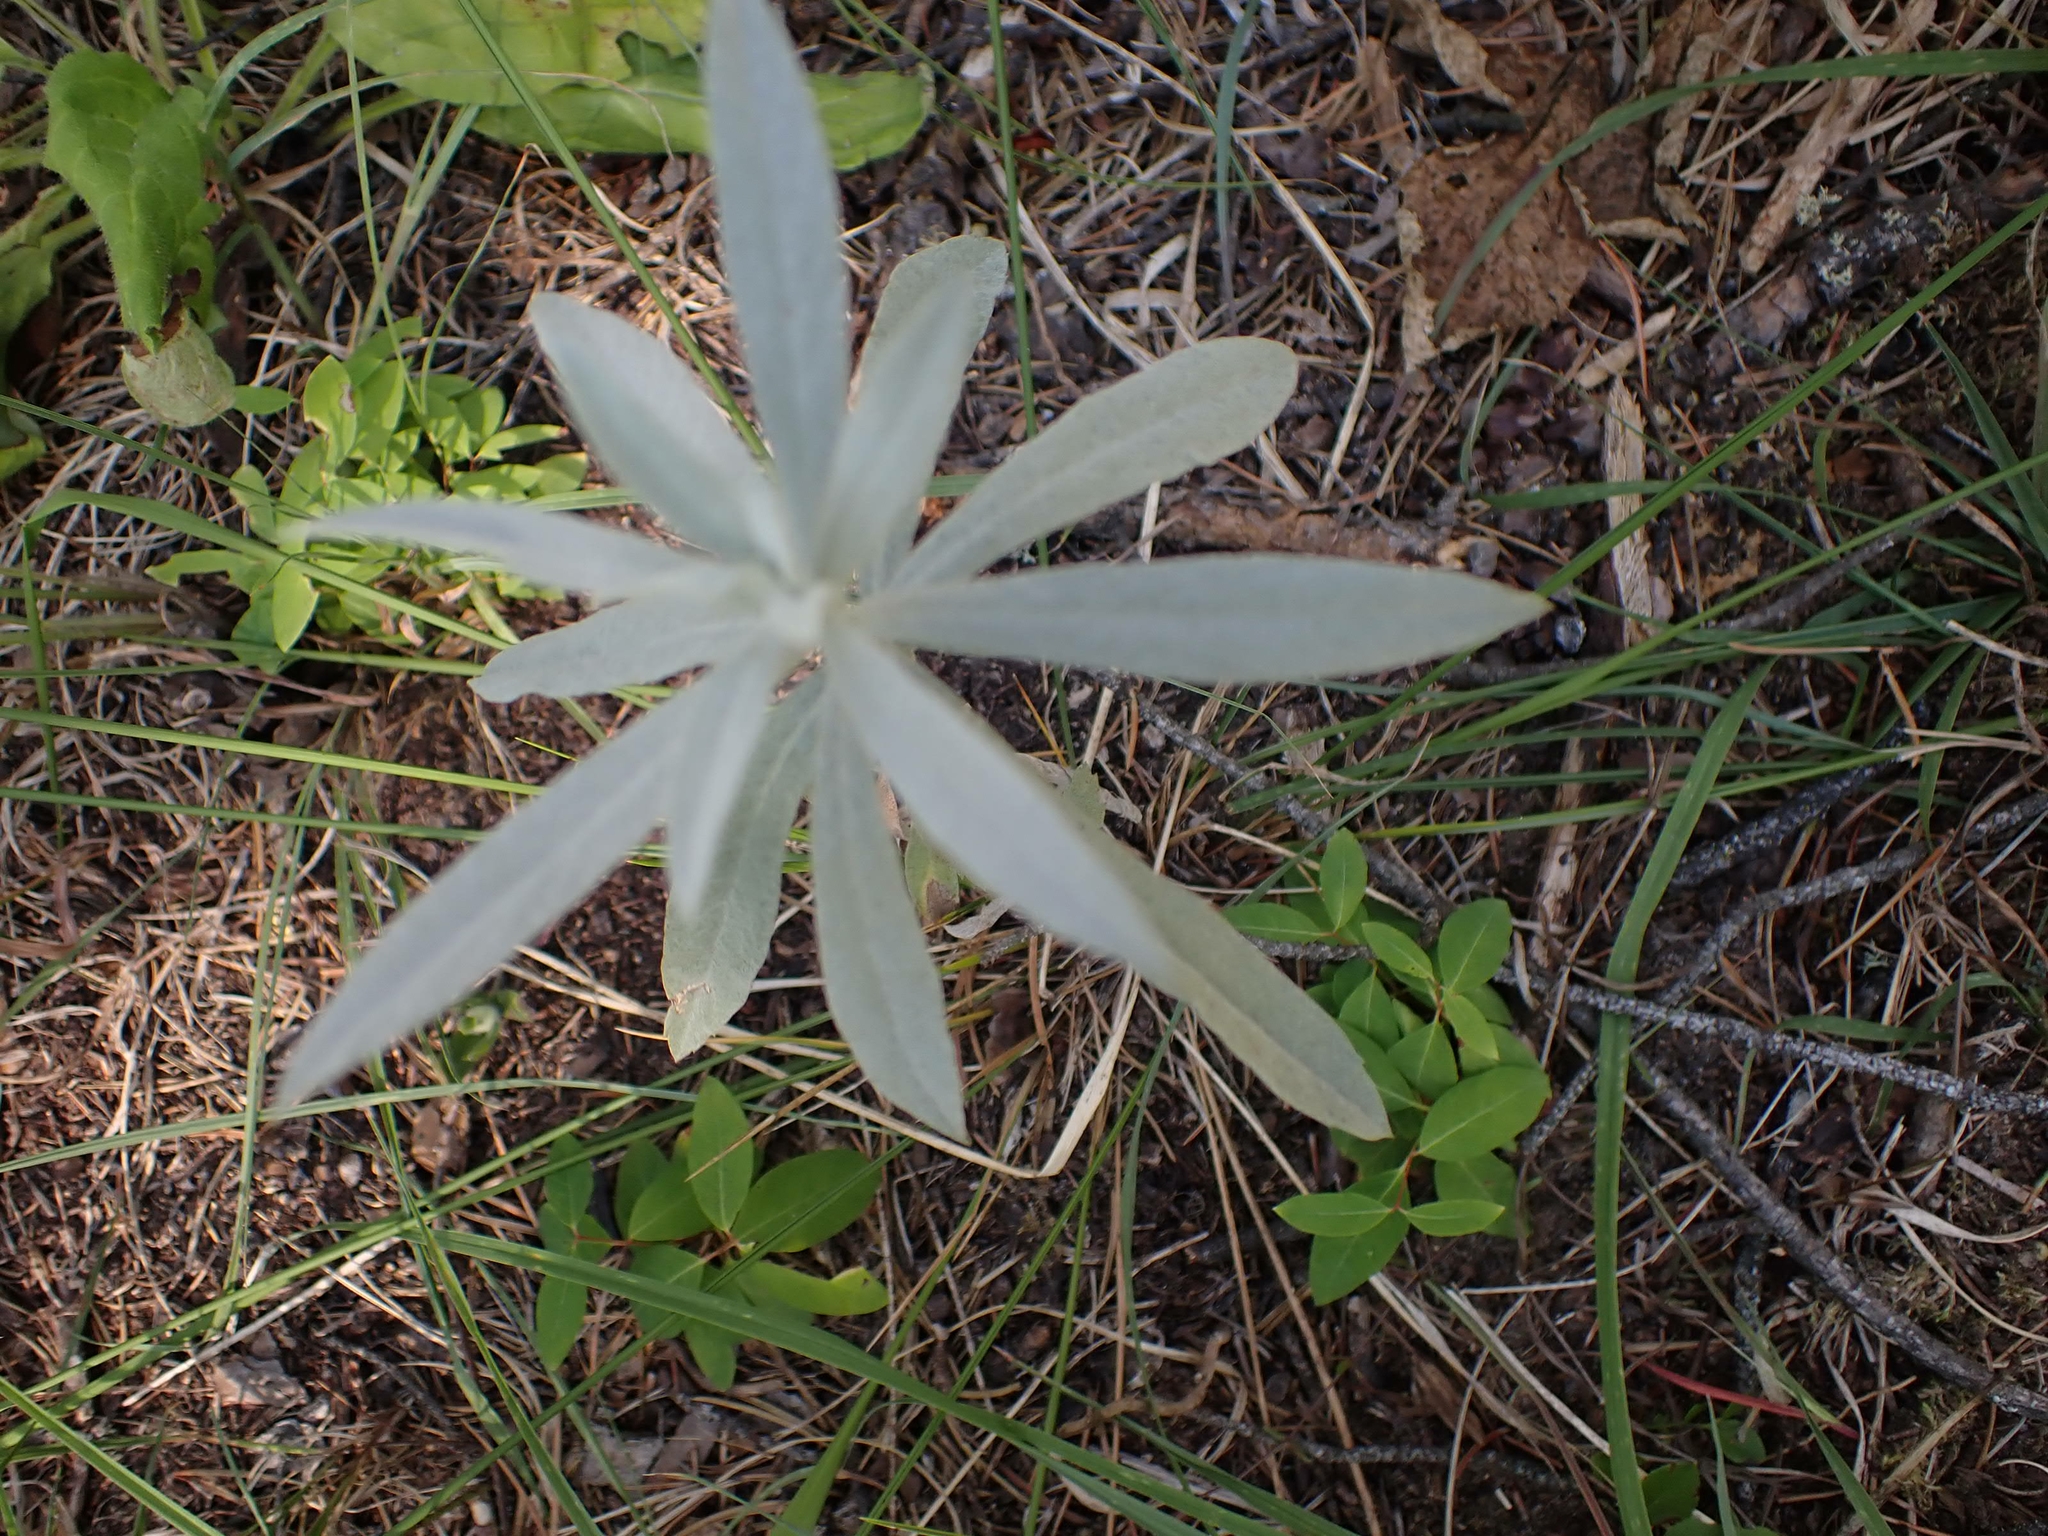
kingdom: Plantae
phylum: Tracheophyta
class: Magnoliopsida
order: Asterales
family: Asteraceae
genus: Artemisia
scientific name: Artemisia ludoviciana
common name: Western mugwort
